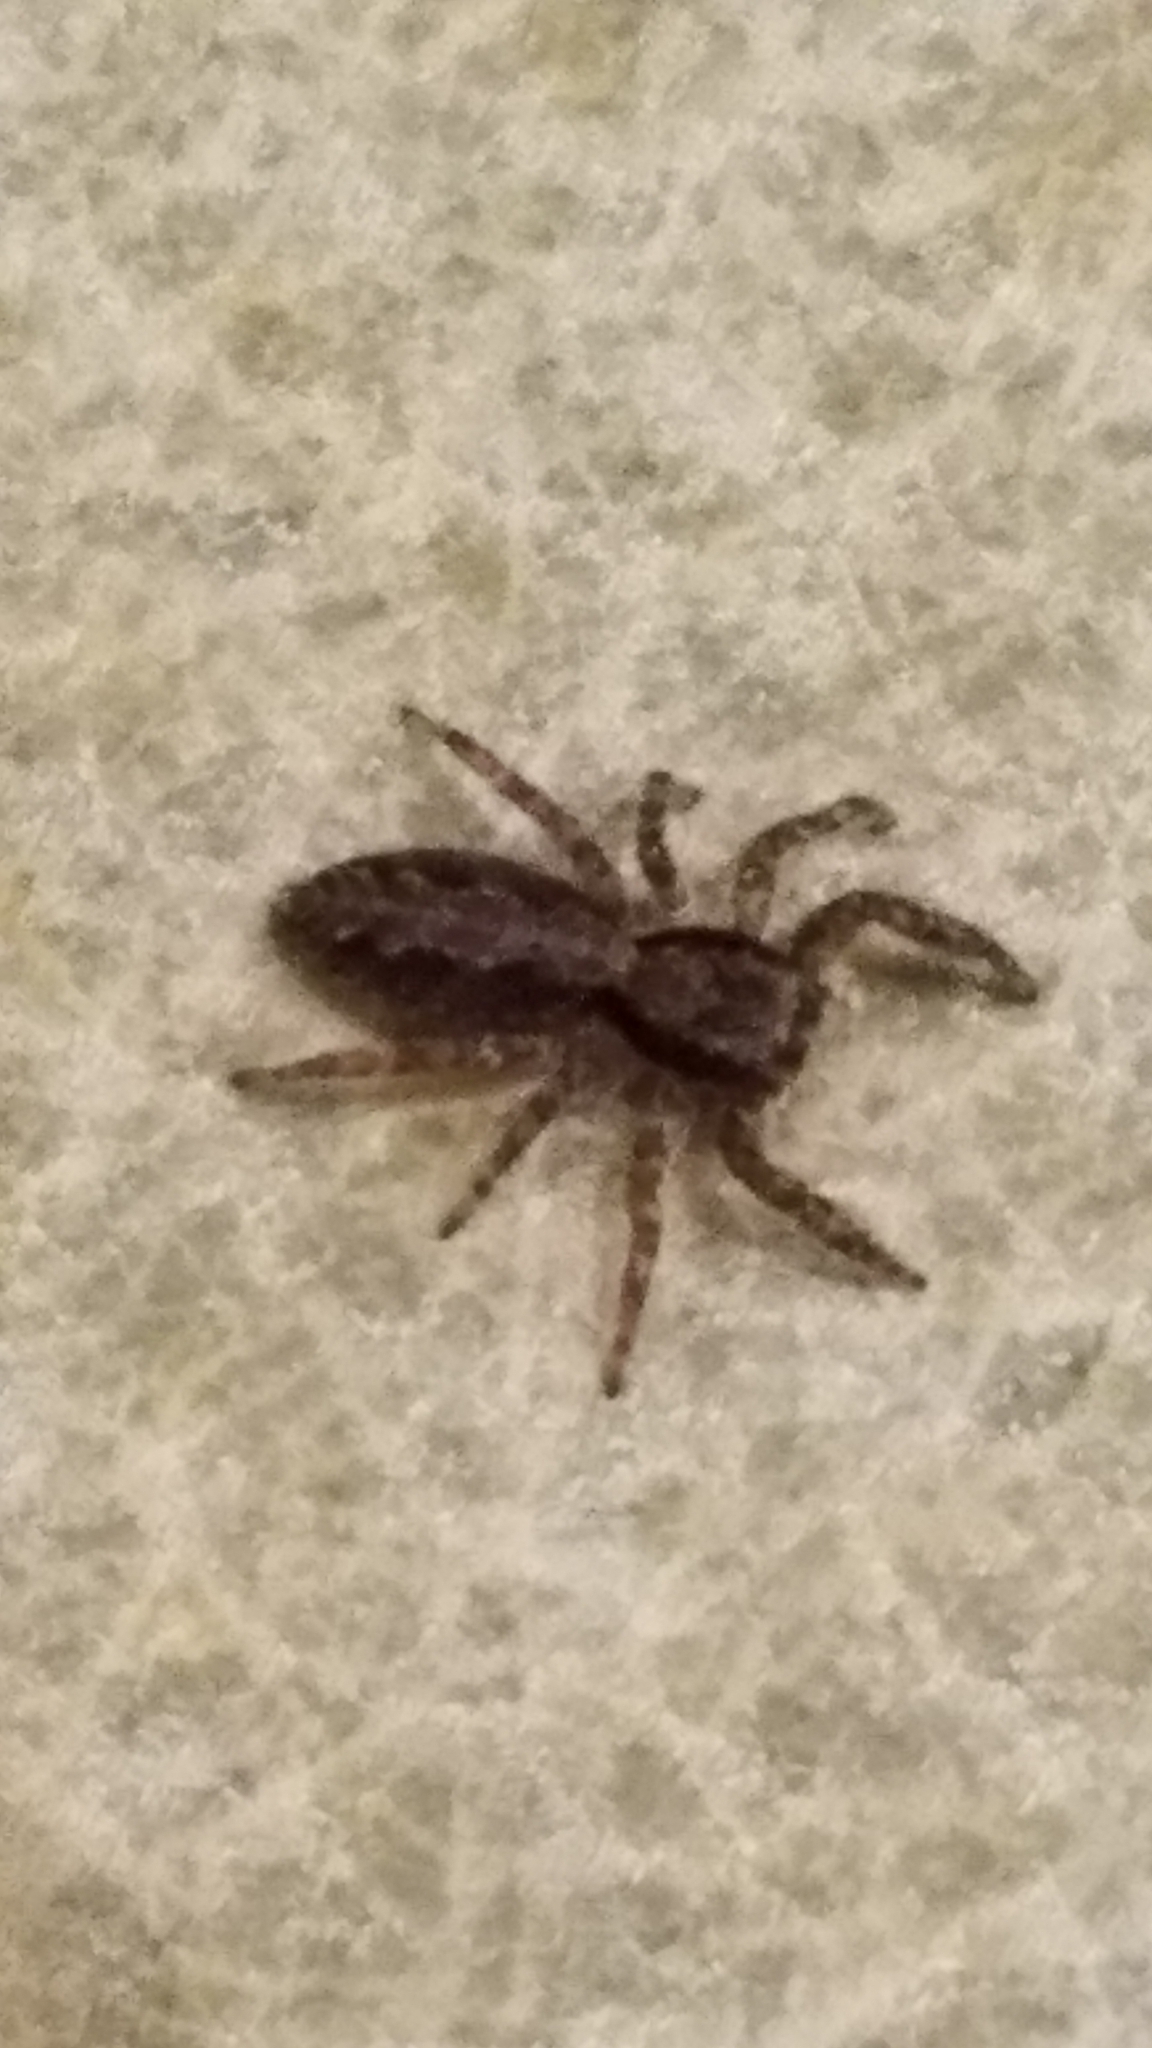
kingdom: Animalia
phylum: Arthropoda
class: Arachnida
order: Araneae
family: Salticidae
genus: Platycryptus
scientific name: Platycryptus californicus
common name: Jumping spiders
